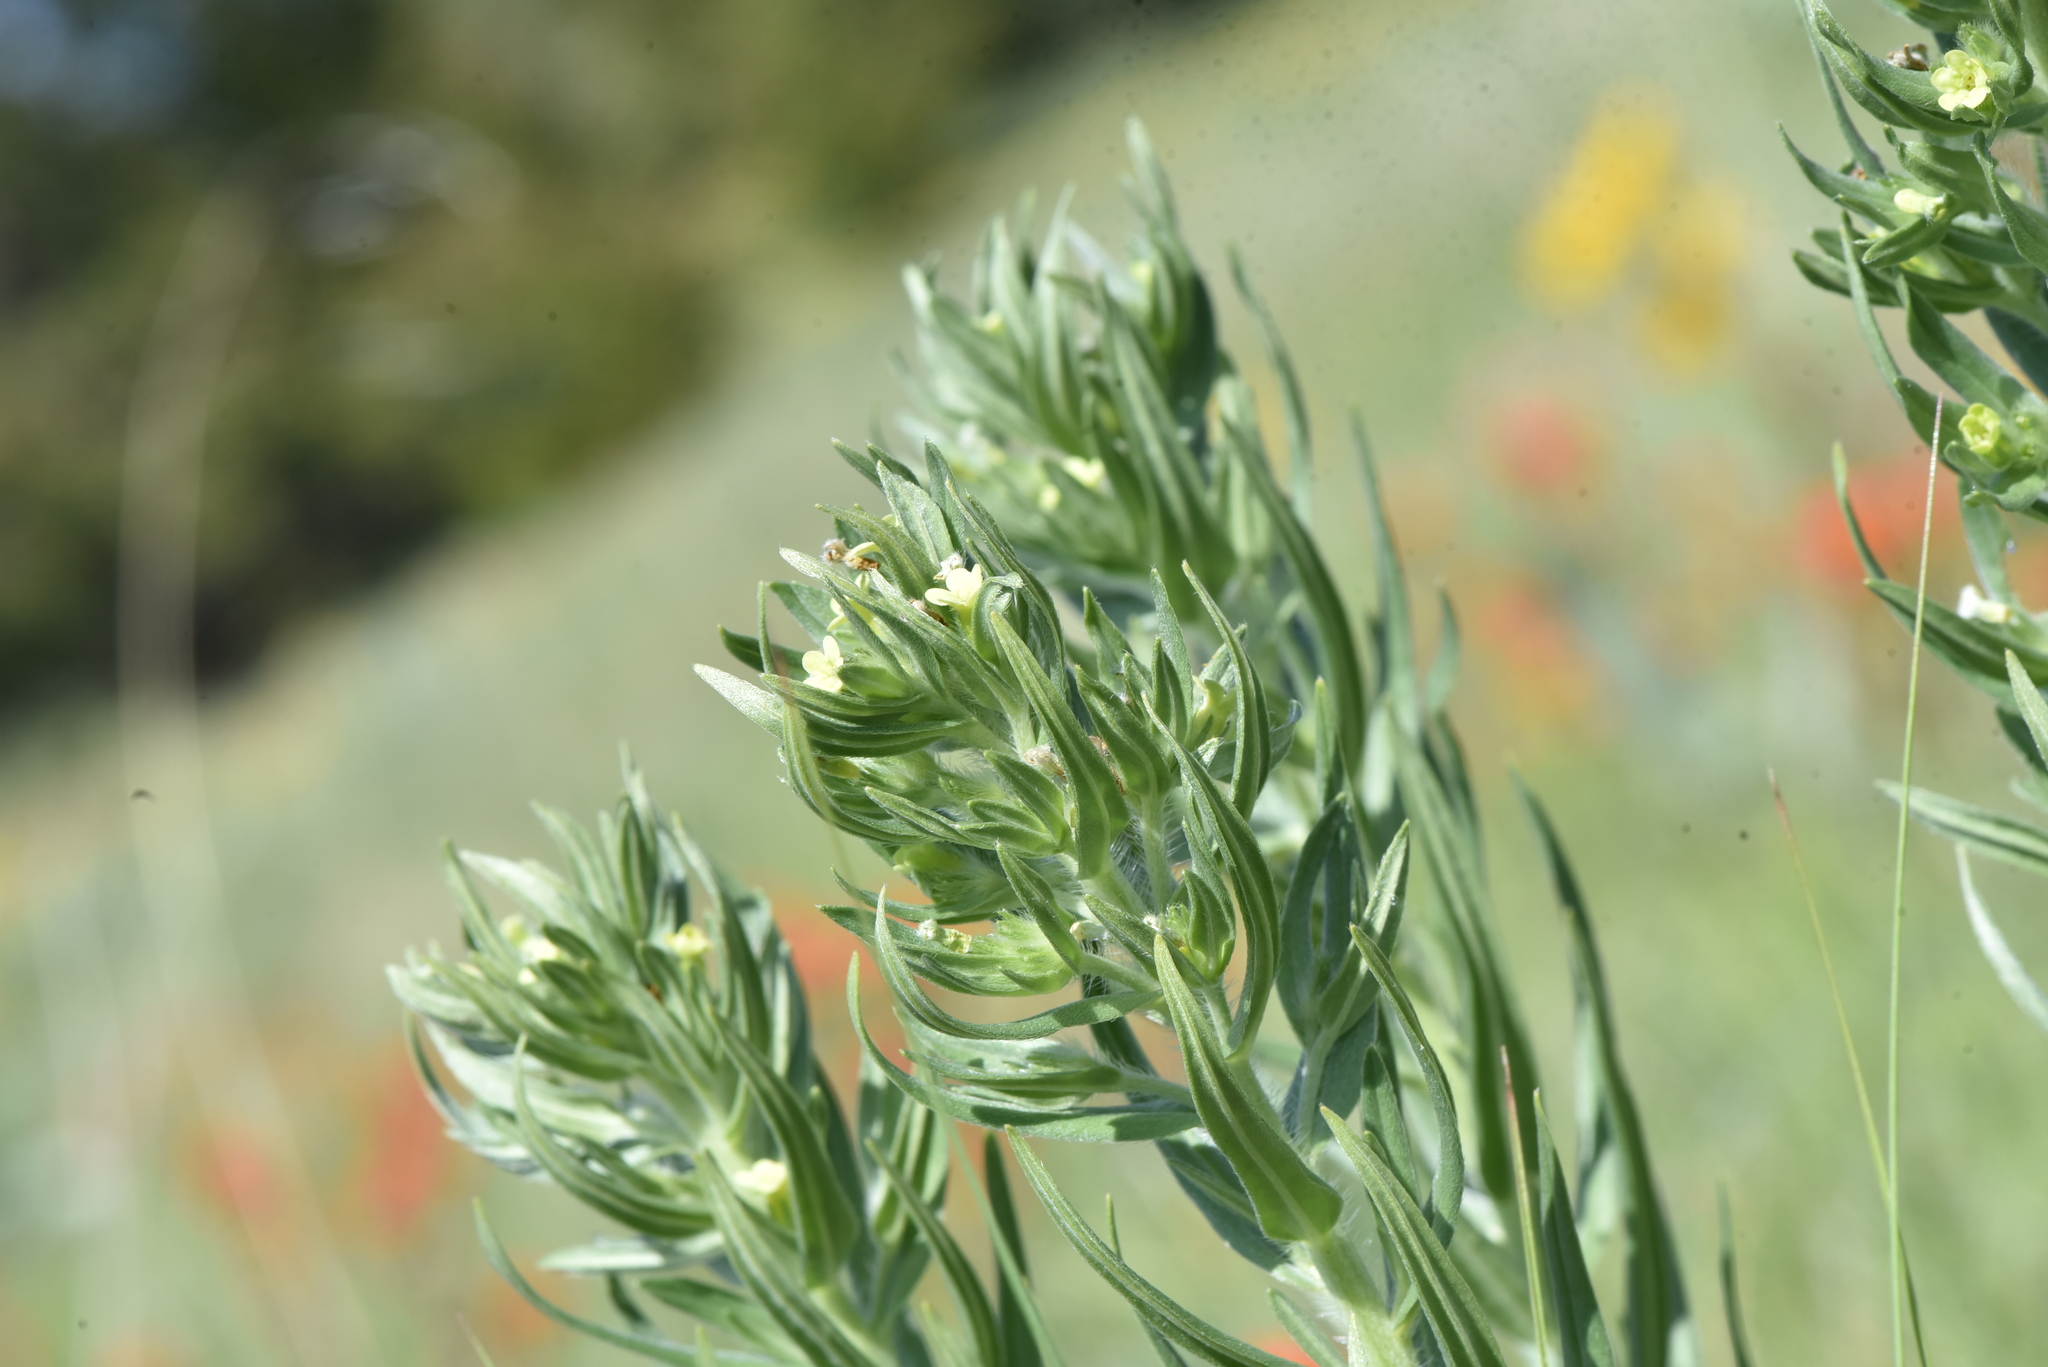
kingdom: Plantae
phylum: Tracheophyta
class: Magnoliopsida
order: Boraginales
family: Boraginaceae
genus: Lithospermum
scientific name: Lithospermum ruderale
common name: Western gromwell
